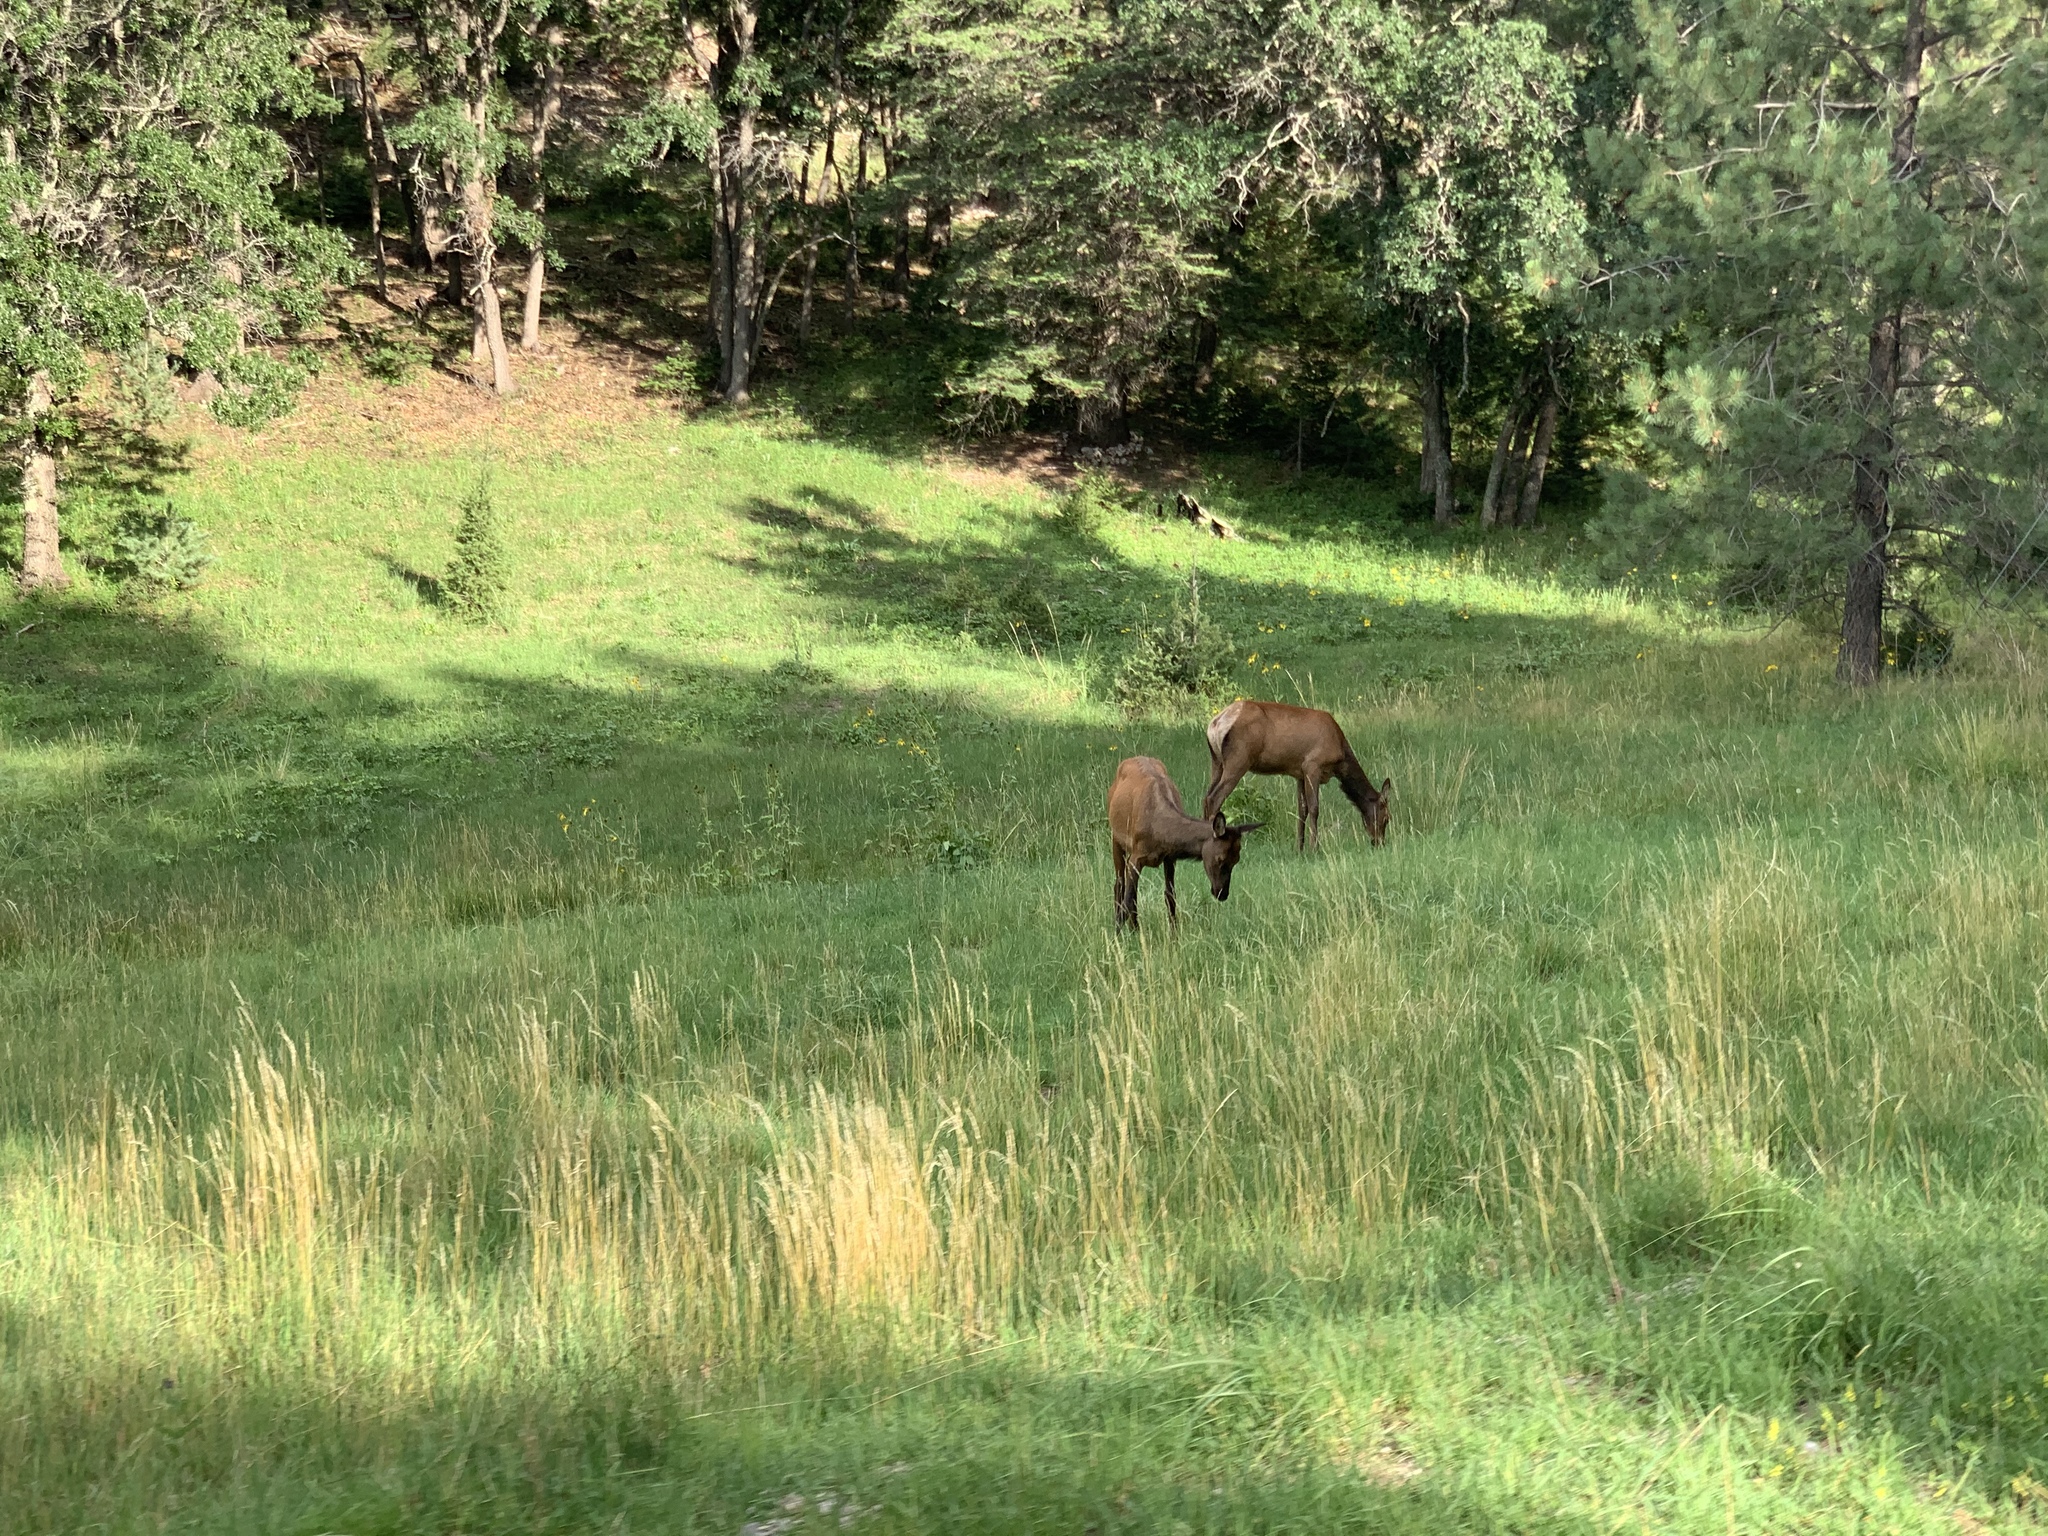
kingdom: Animalia
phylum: Chordata
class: Mammalia
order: Artiodactyla
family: Cervidae
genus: Cervus
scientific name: Cervus elaphus
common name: Red deer
